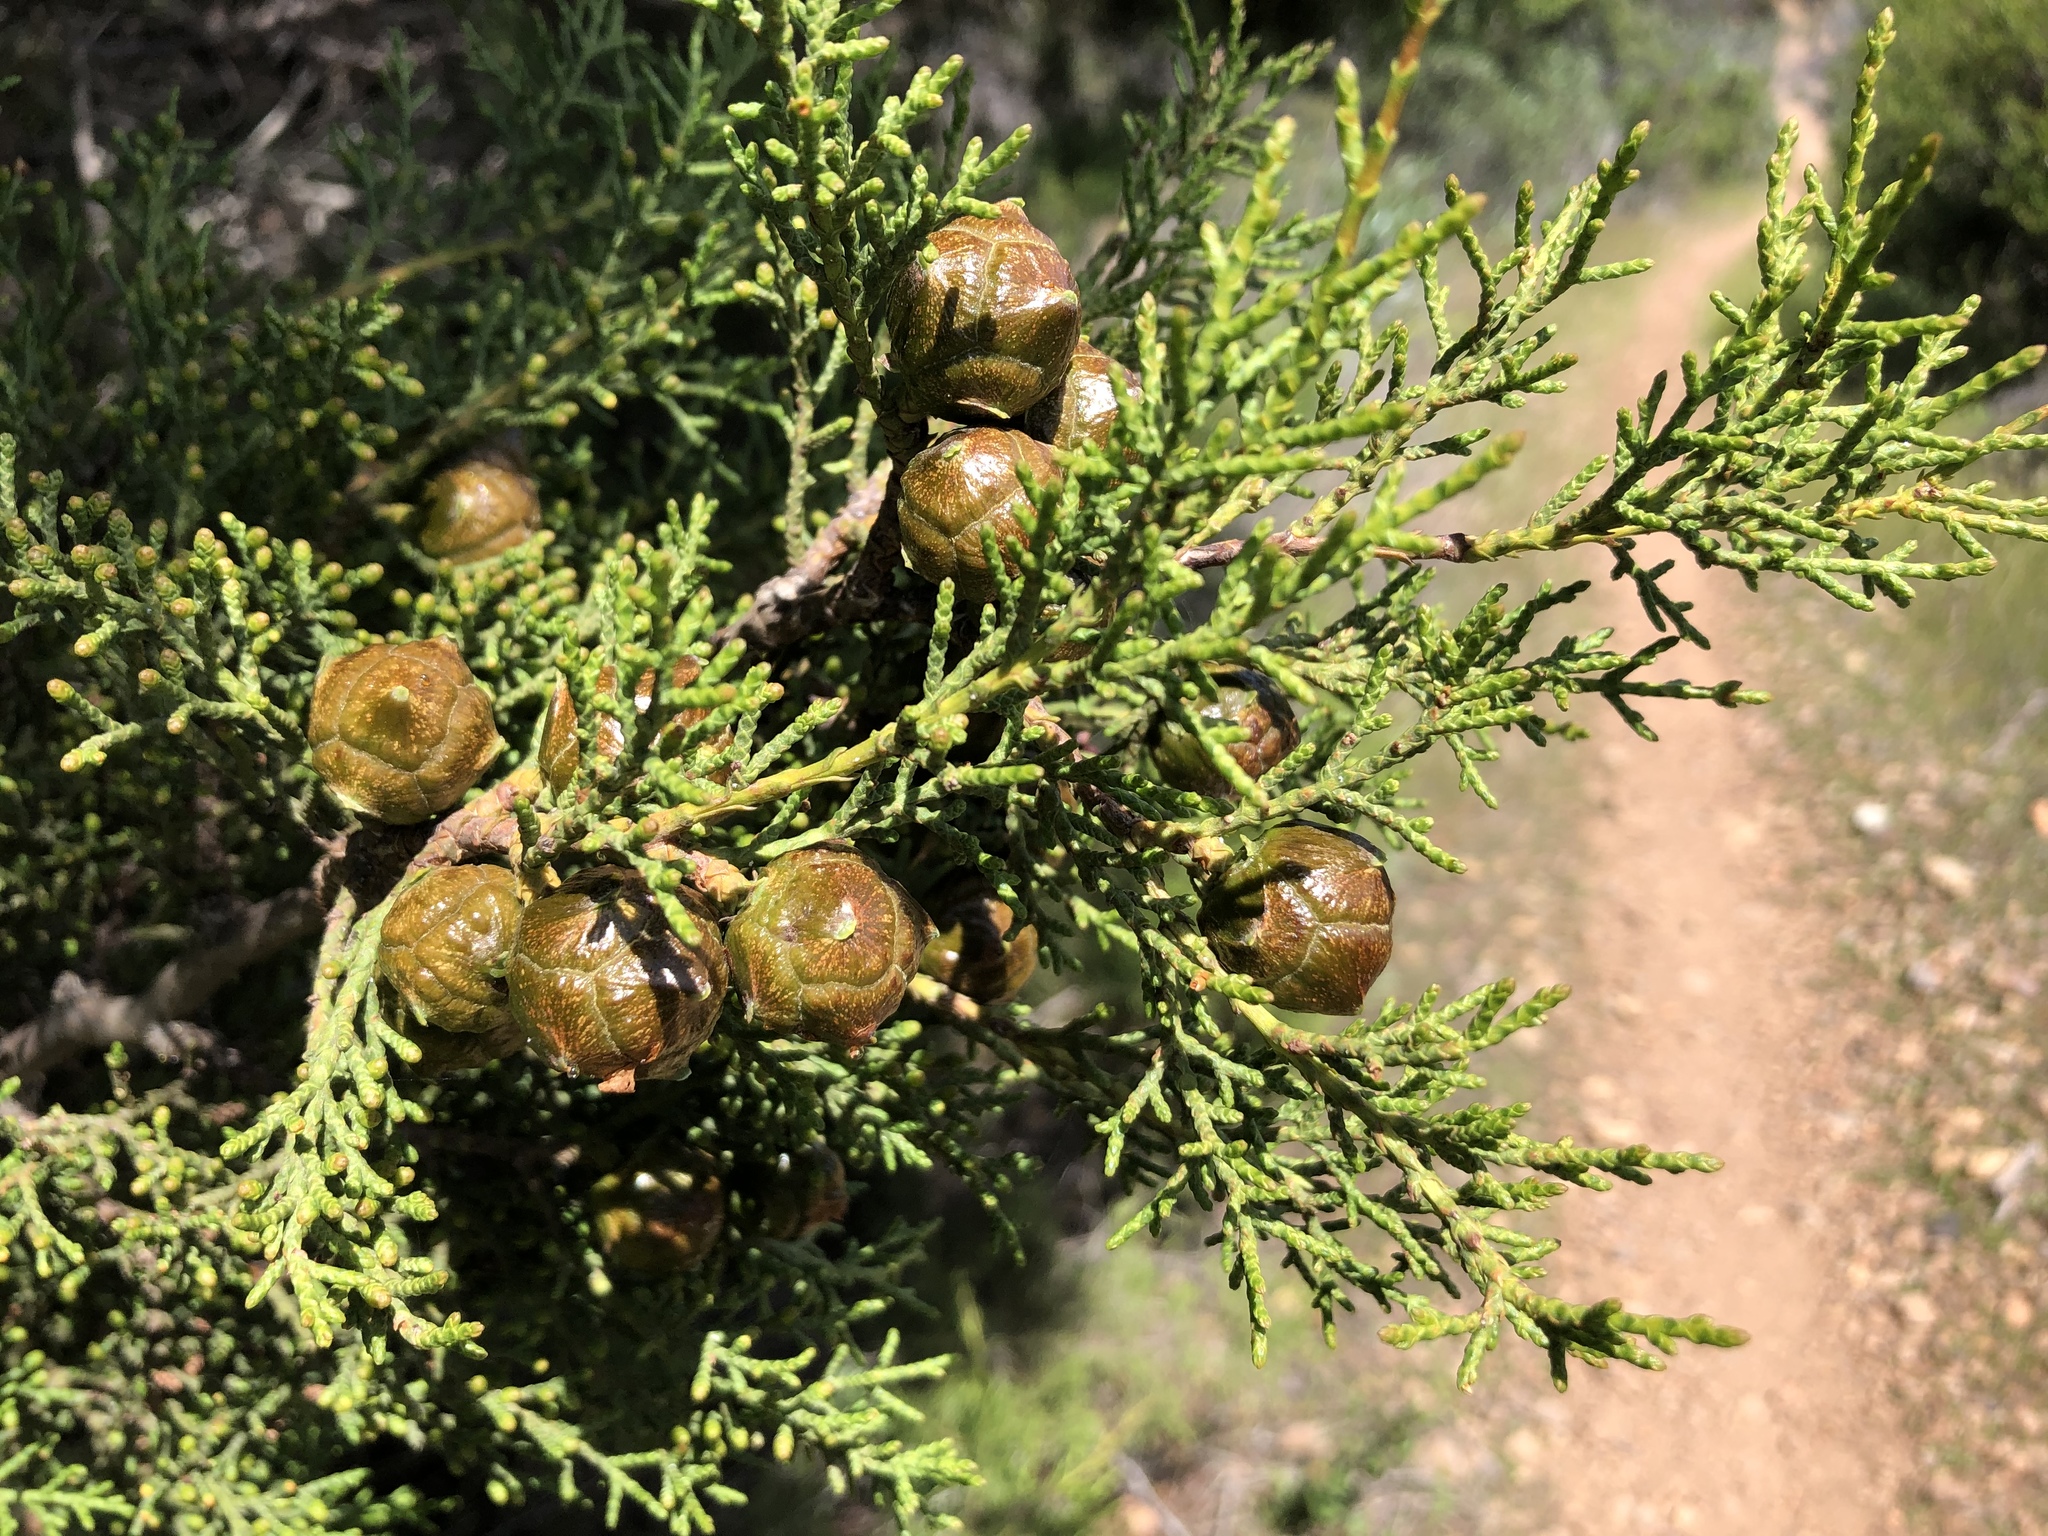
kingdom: Plantae
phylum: Tracheophyta
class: Pinopsida
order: Pinales
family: Cupressaceae
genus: Cupressus
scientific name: Cupressus guadalupensis
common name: Forbes cypress
